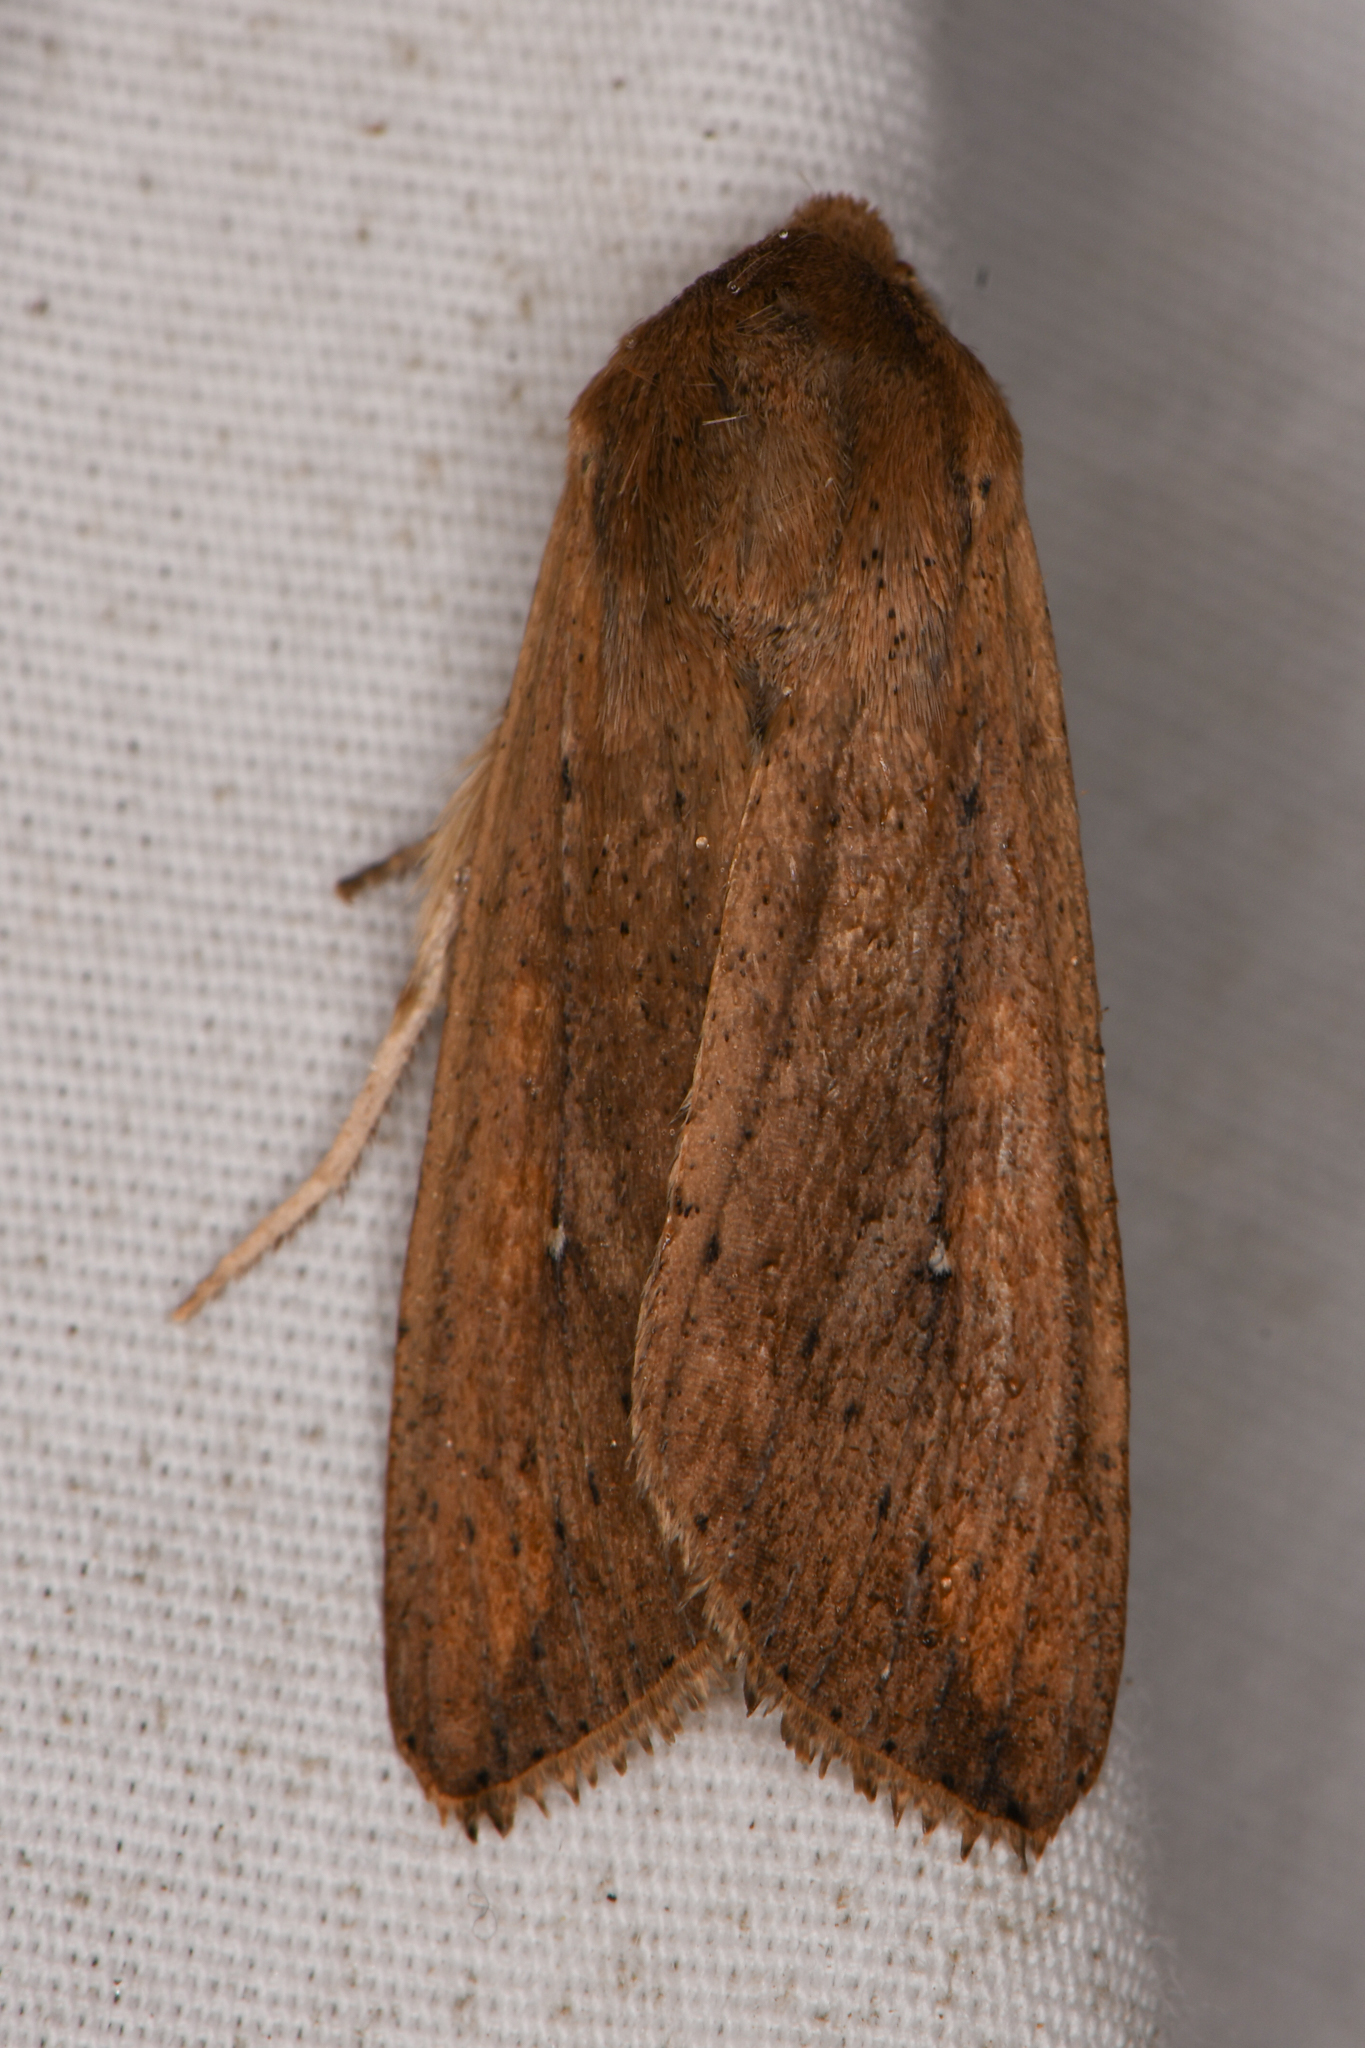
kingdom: Animalia
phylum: Arthropoda
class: Insecta
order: Lepidoptera
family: Noctuidae
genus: Mythimna
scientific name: Mythimna unipuncta
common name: White-speck
